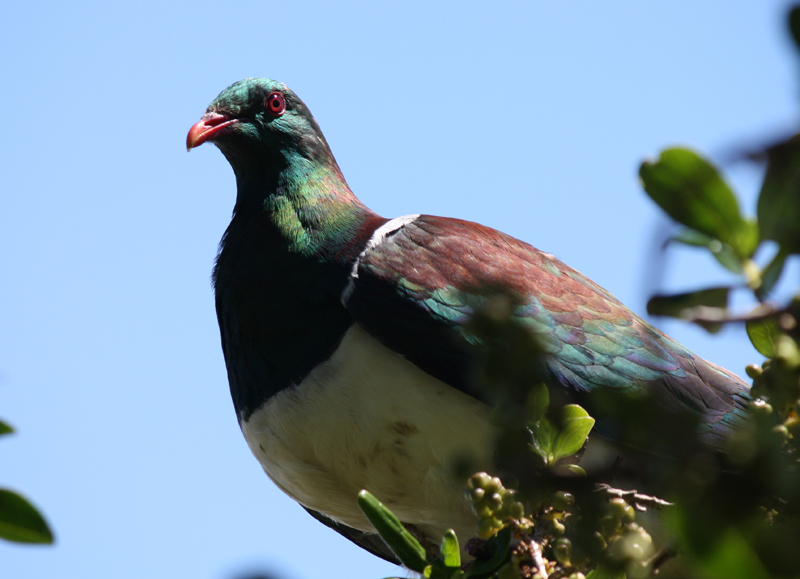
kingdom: Animalia
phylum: Chordata
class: Aves
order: Columbiformes
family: Columbidae
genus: Hemiphaga
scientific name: Hemiphaga novaeseelandiae
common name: New zealand pigeon
